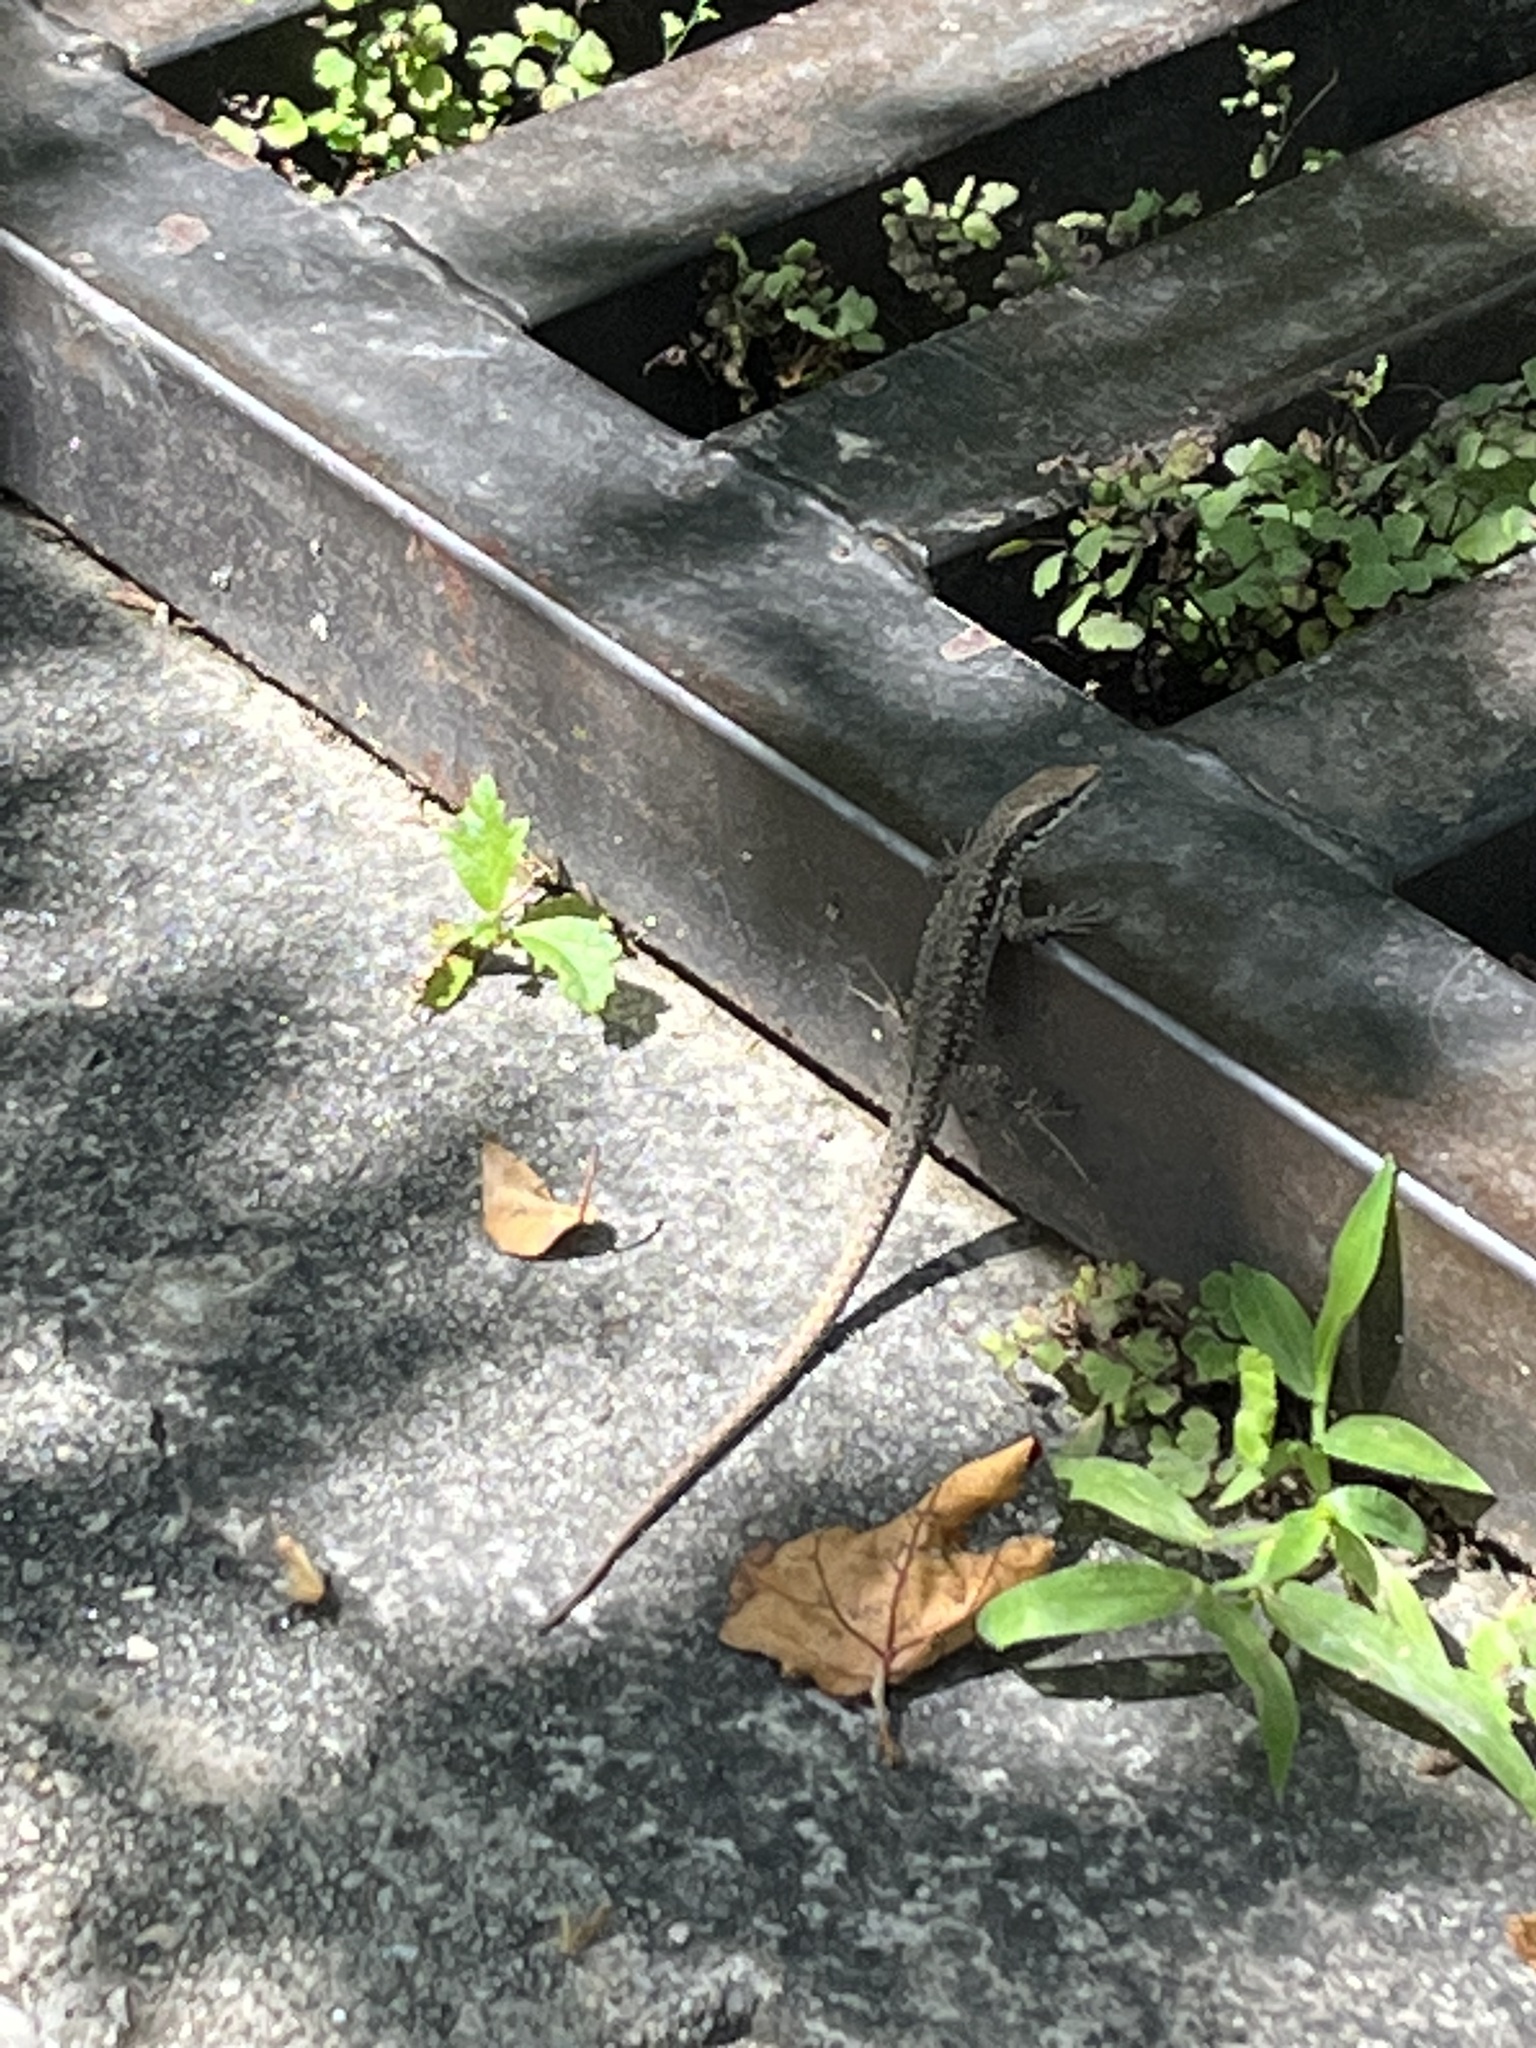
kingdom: Animalia
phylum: Chordata
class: Squamata
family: Lacertidae
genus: Podarcis
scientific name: Podarcis muralis
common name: Common wall lizard
